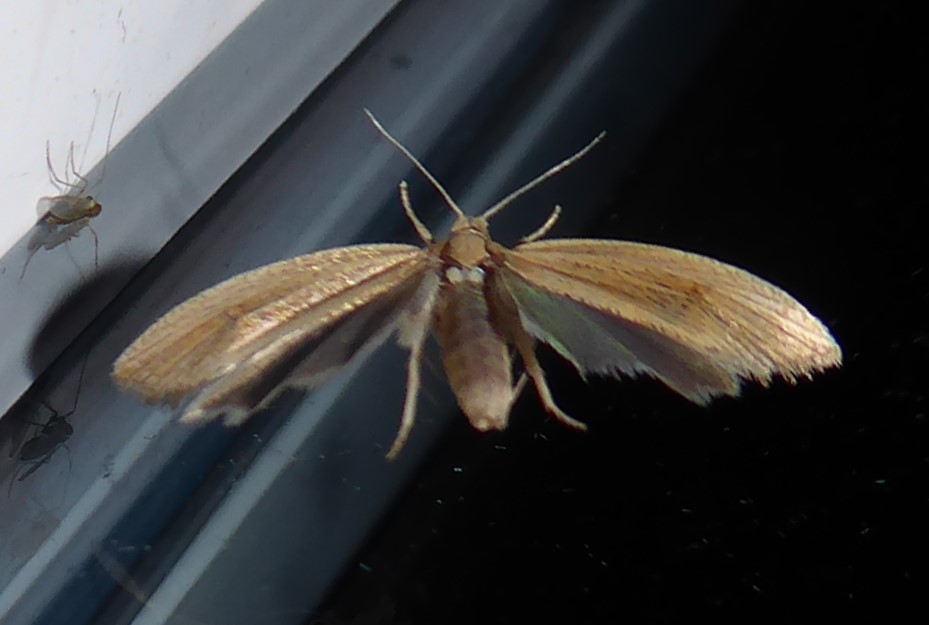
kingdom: Animalia
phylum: Arthropoda
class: Insecta
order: Lepidoptera
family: Tortricidae
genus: Bactra
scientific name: Bactra noteraula
